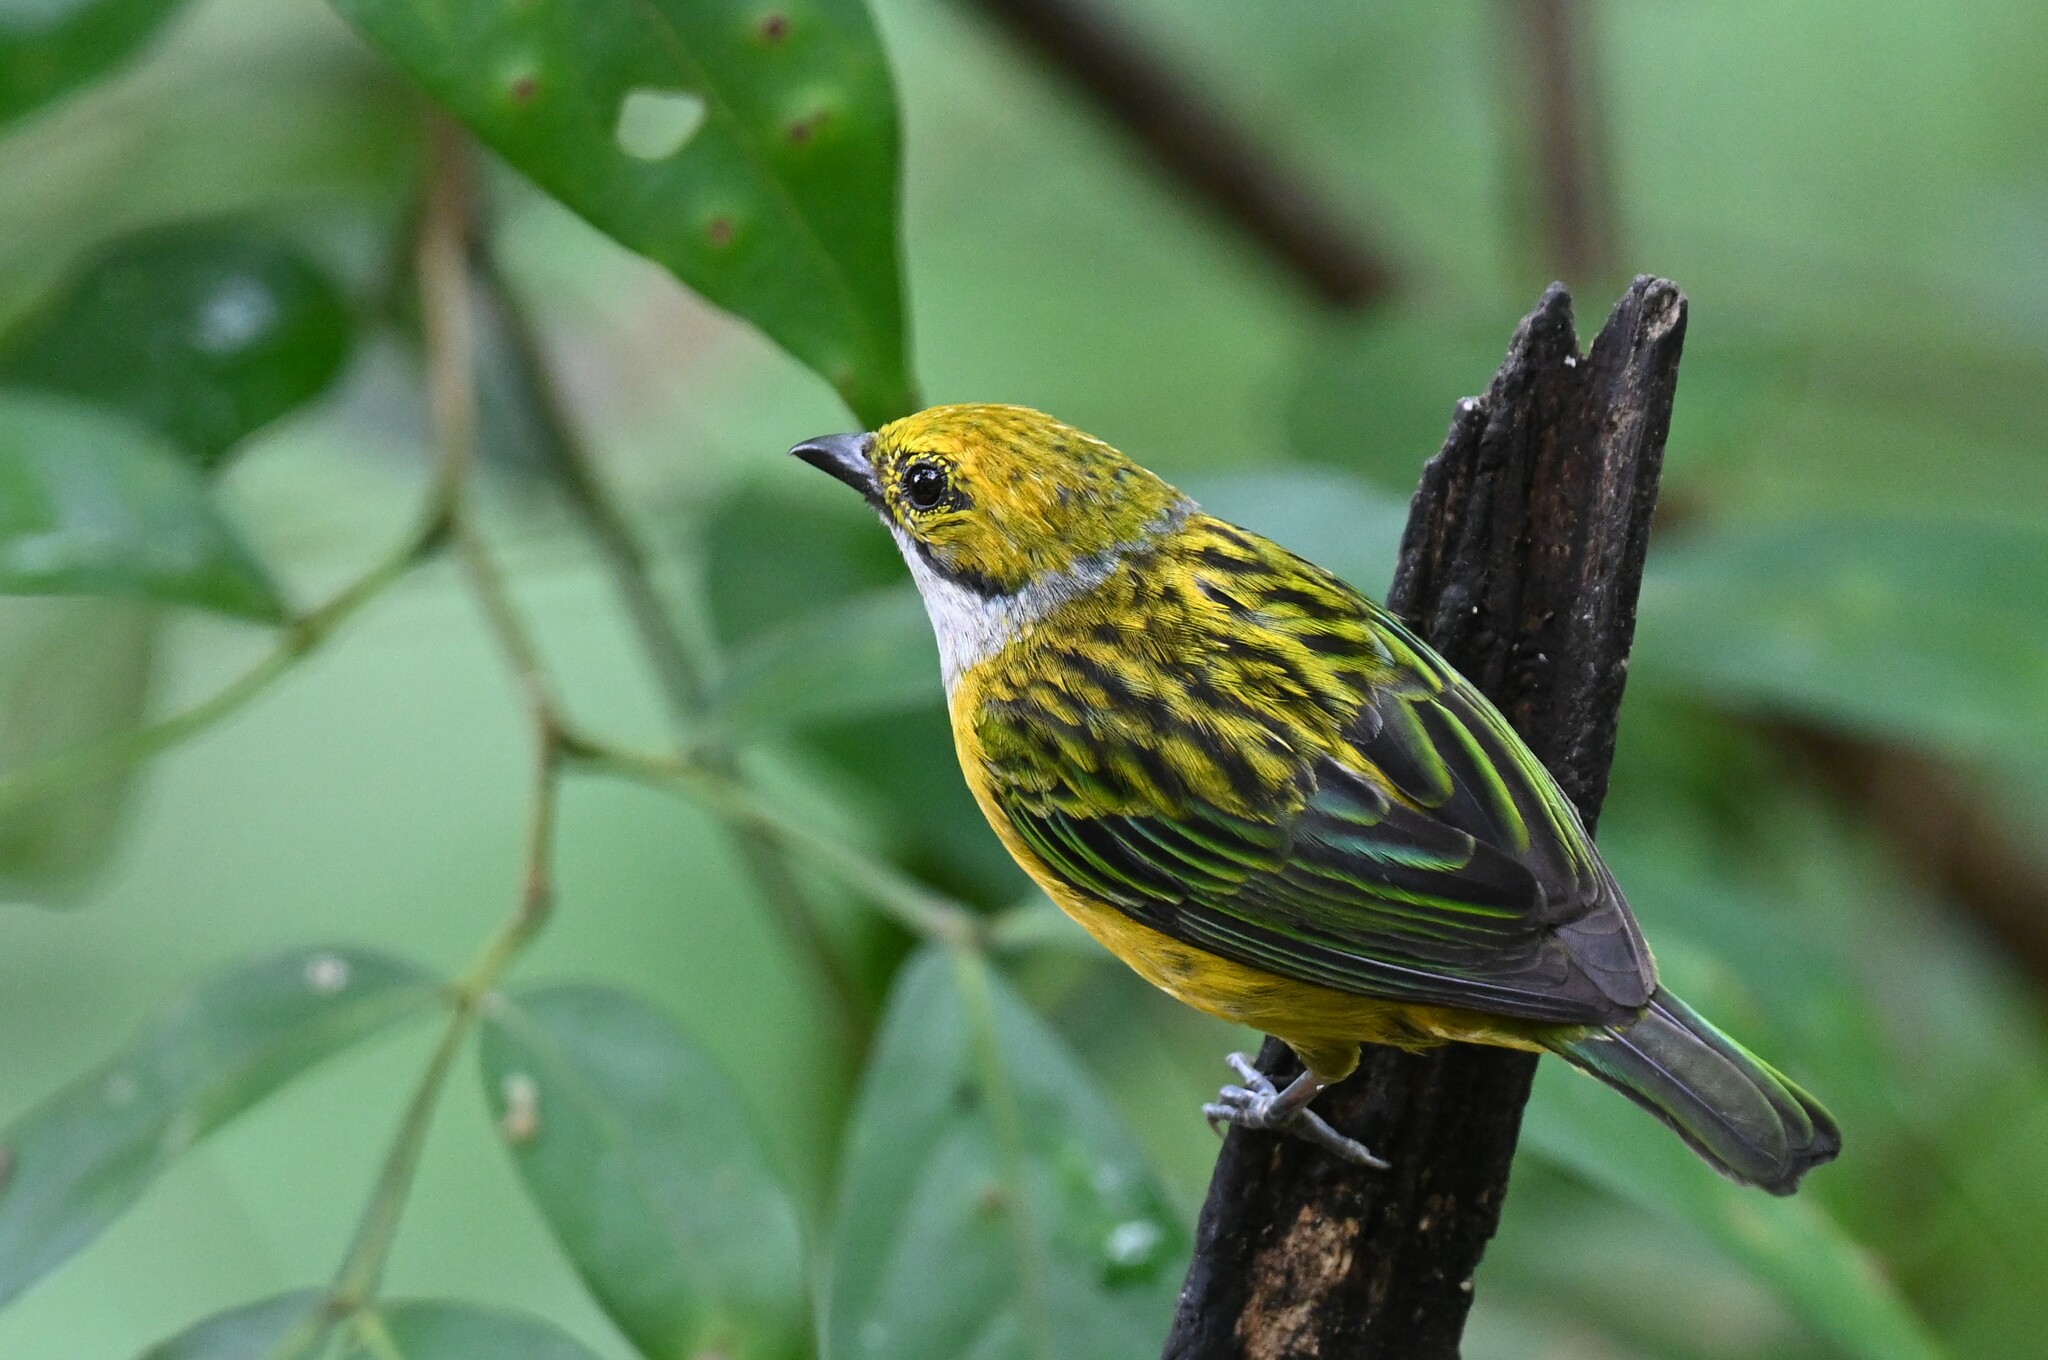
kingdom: Animalia
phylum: Chordata
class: Aves
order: Passeriformes
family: Thraupidae
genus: Tangara
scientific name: Tangara icterocephala
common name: Silver-throated tanager
